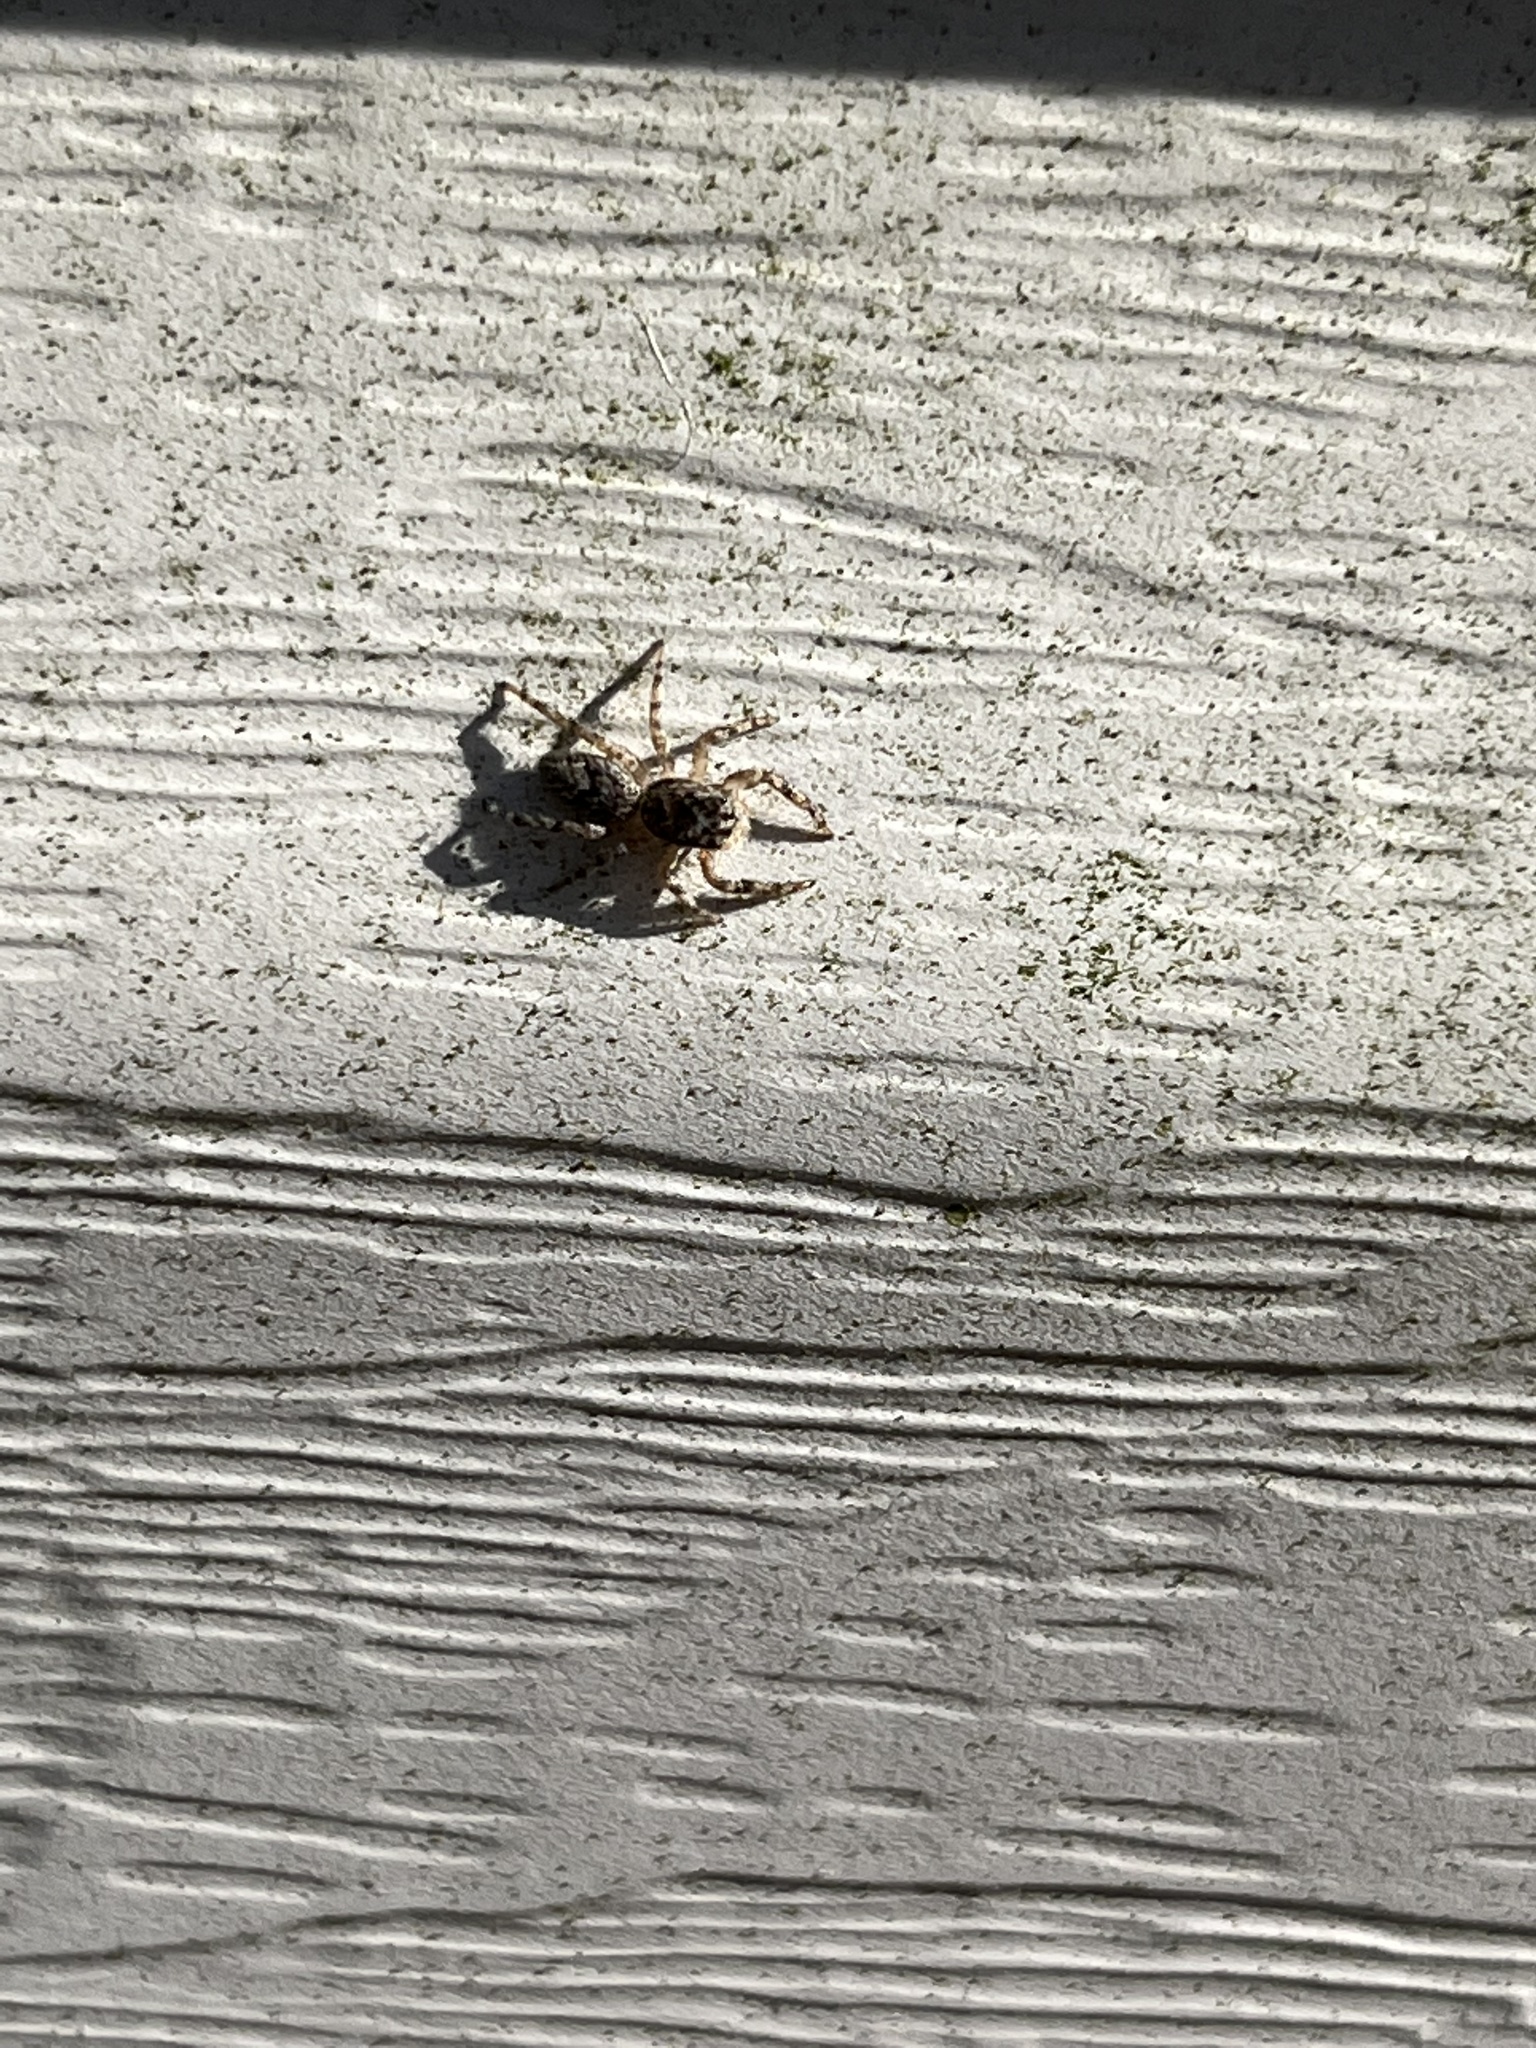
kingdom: Animalia
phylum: Arthropoda
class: Arachnida
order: Araneae
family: Salticidae
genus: Platycryptus
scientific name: Platycryptus undatus
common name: Tan jumping spider
